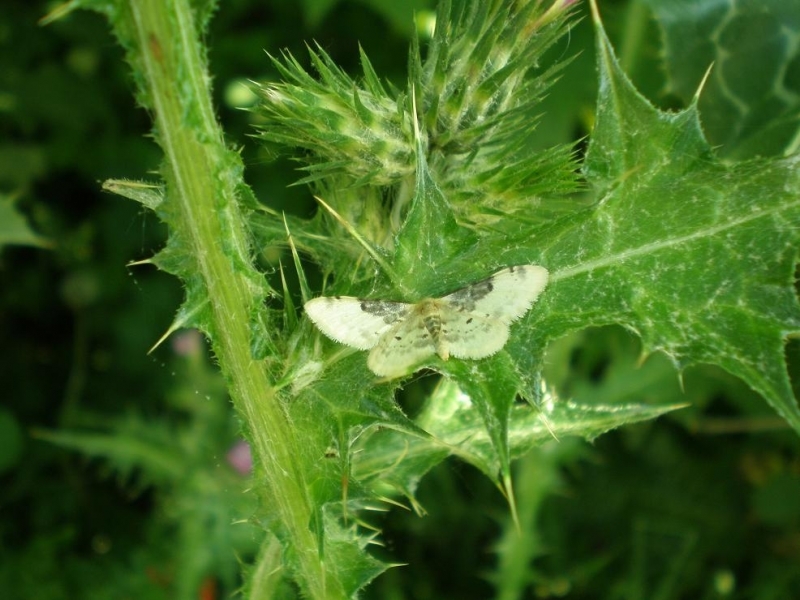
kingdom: Animalia
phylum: Arthropoda
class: Insecta
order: Lepidoptera
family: Geometridae
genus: Idaea
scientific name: Idaea filicata
